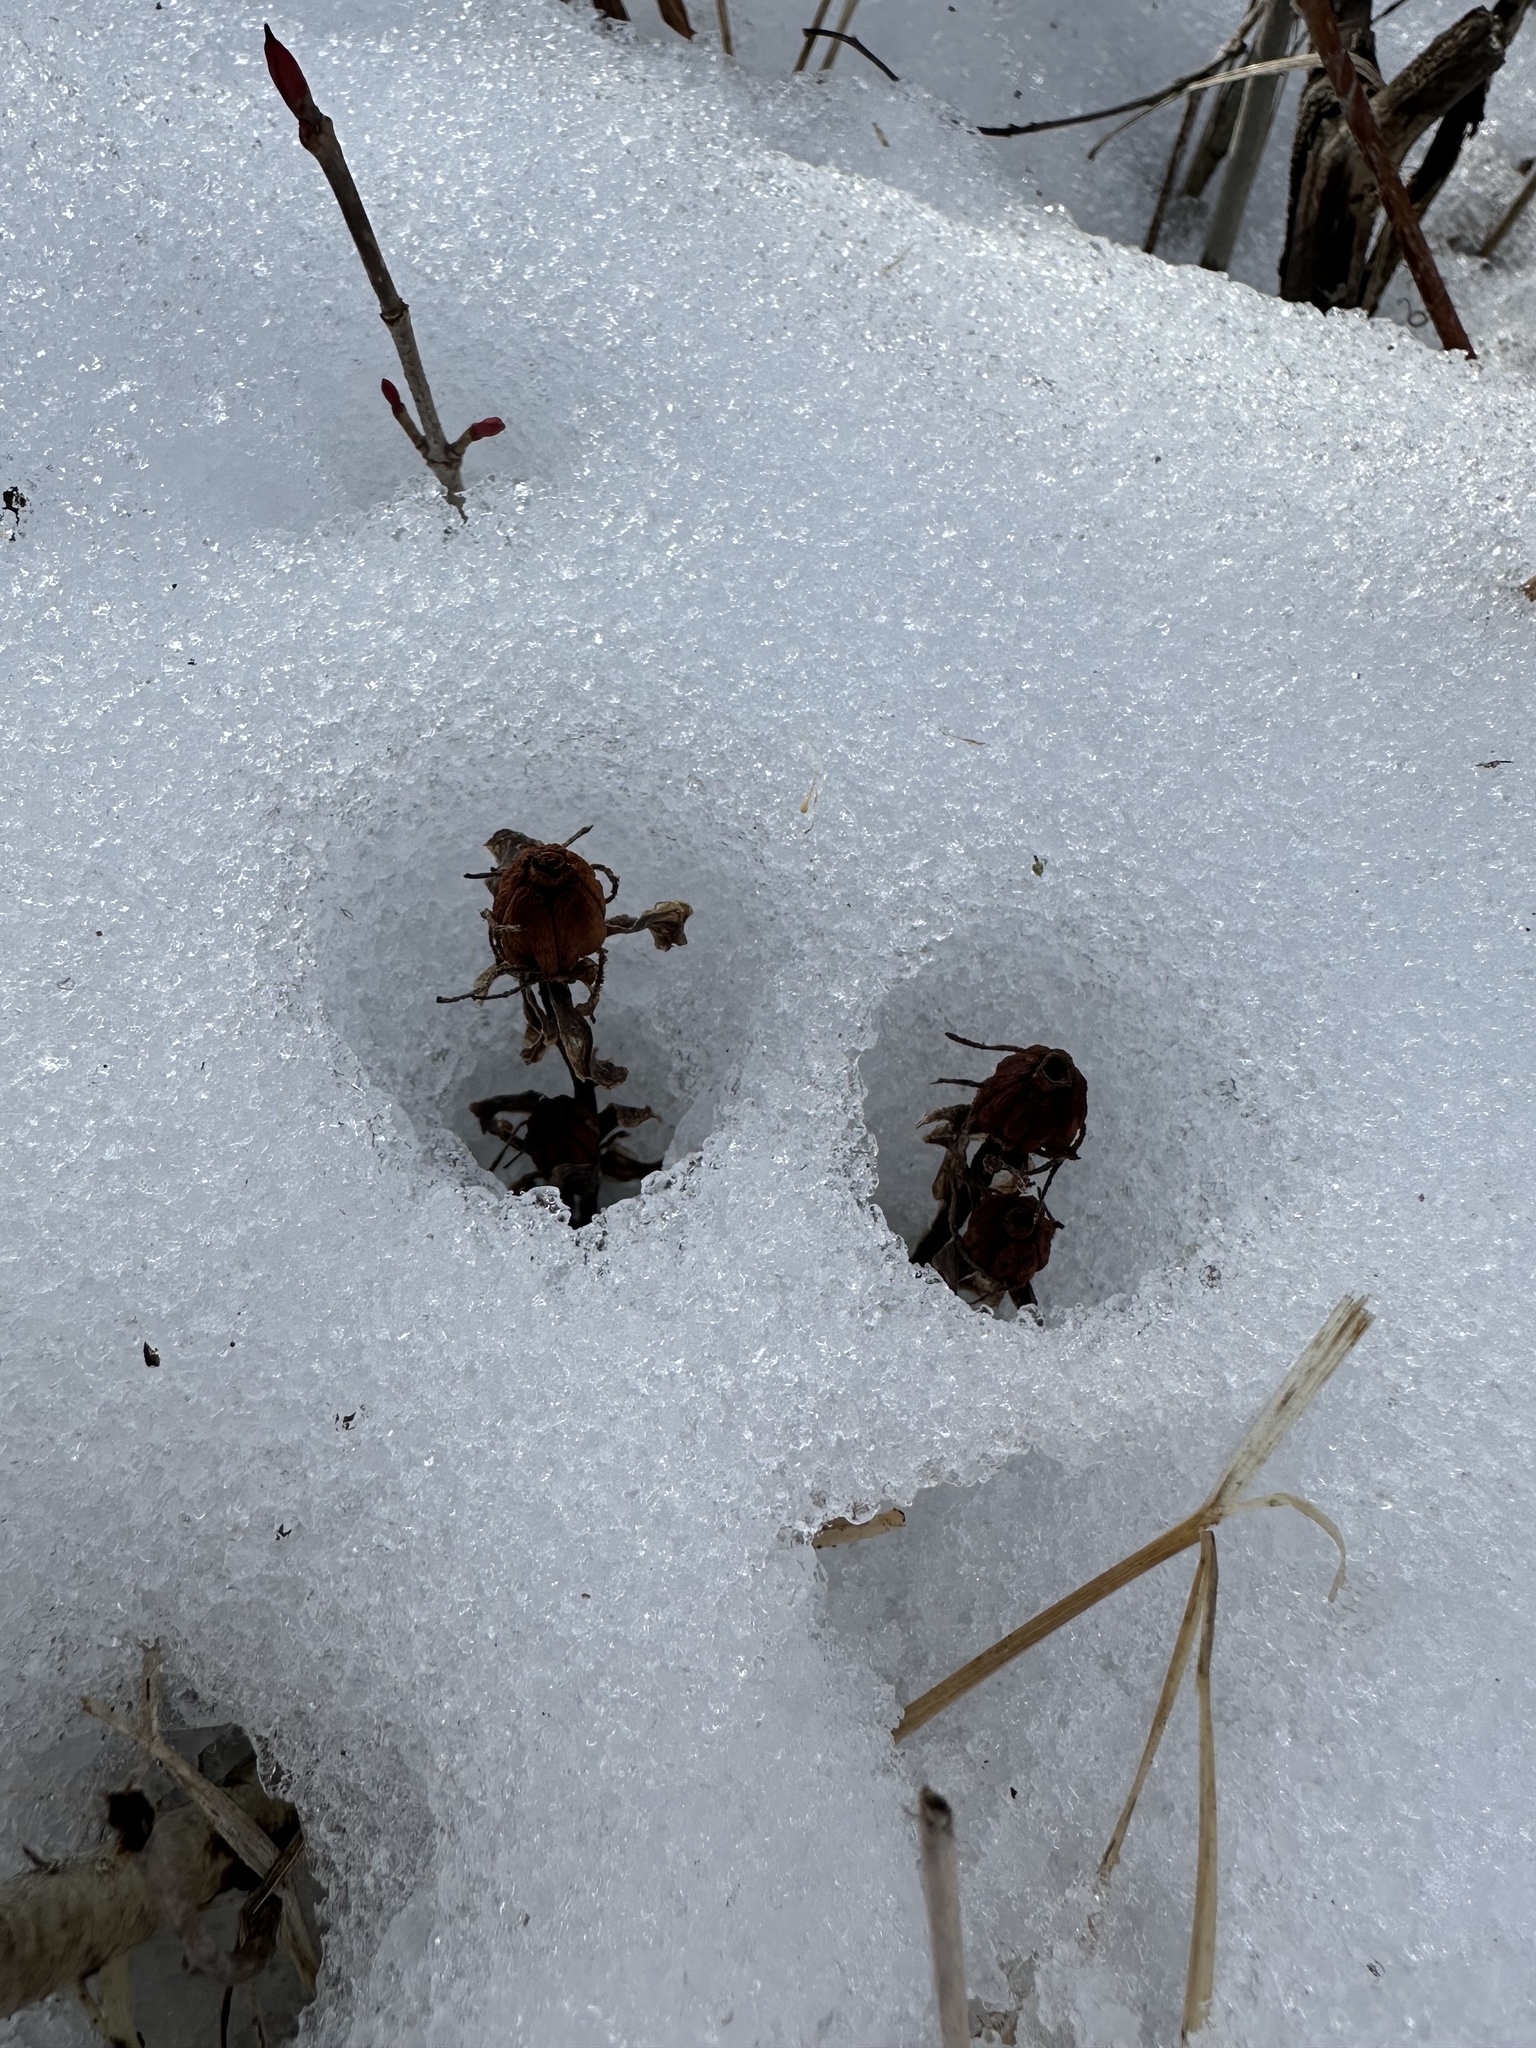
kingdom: Plantae
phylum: Tracheophyta
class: Magnoliopsida
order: Ericales
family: Ericaceae
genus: Monotropa
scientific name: Monotropa uniflora
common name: Convulsion root
